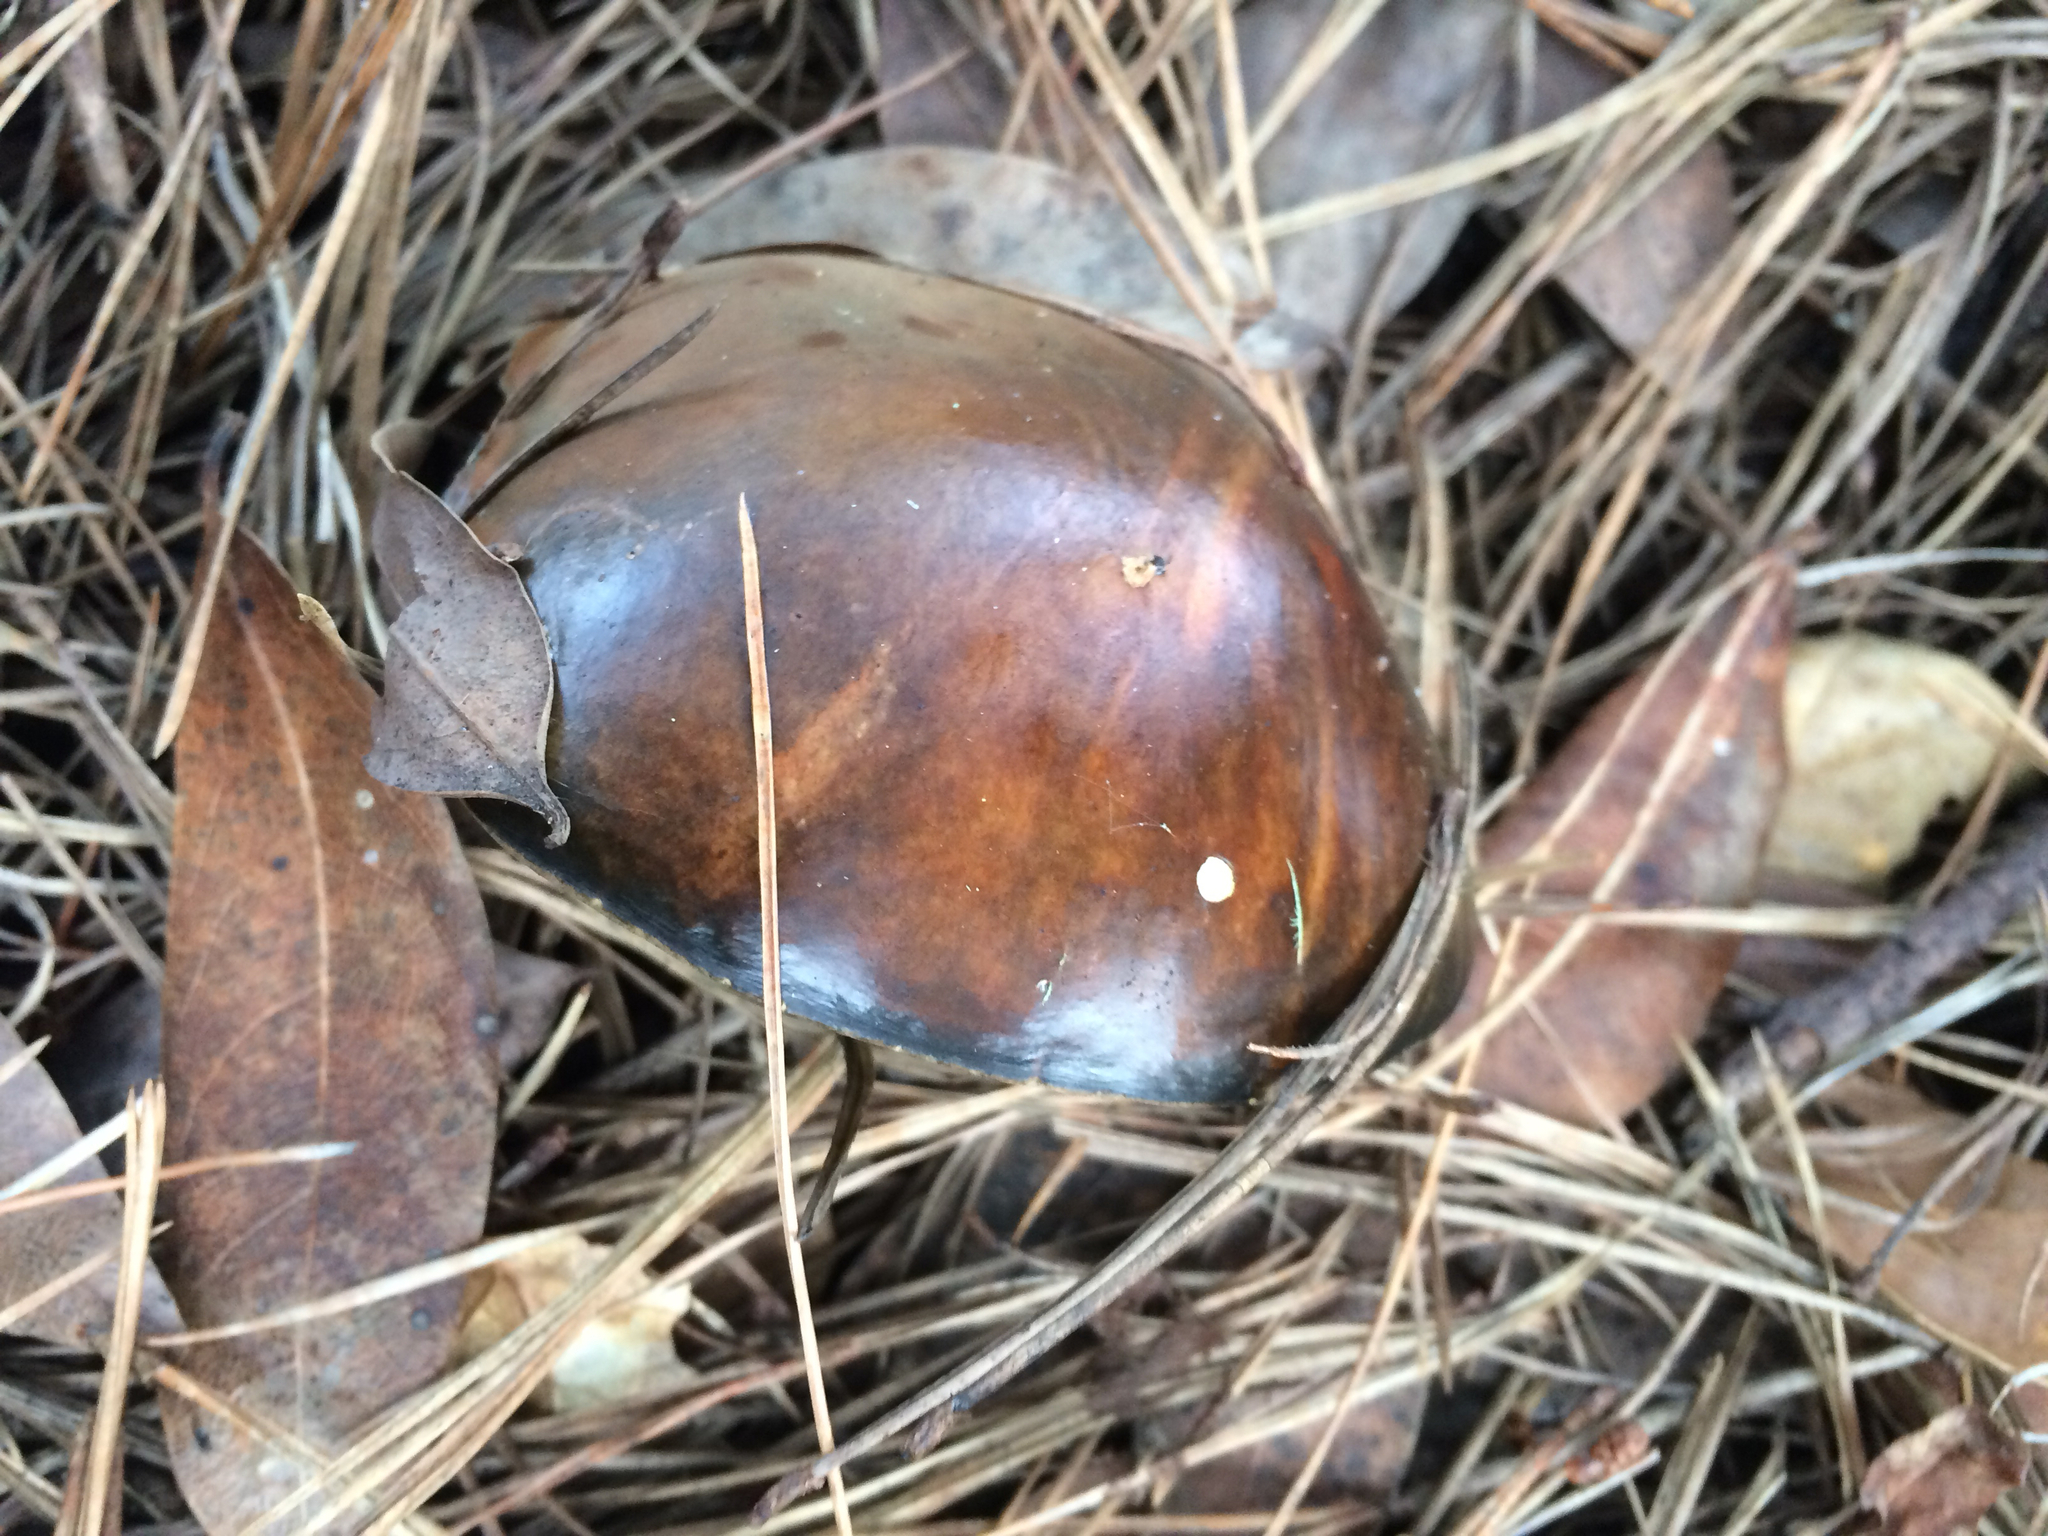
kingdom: Fungi
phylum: Basidiomycota
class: Agaricomycetes
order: Boletales
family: Suillaceae
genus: Suillus
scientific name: Suillus pungens
